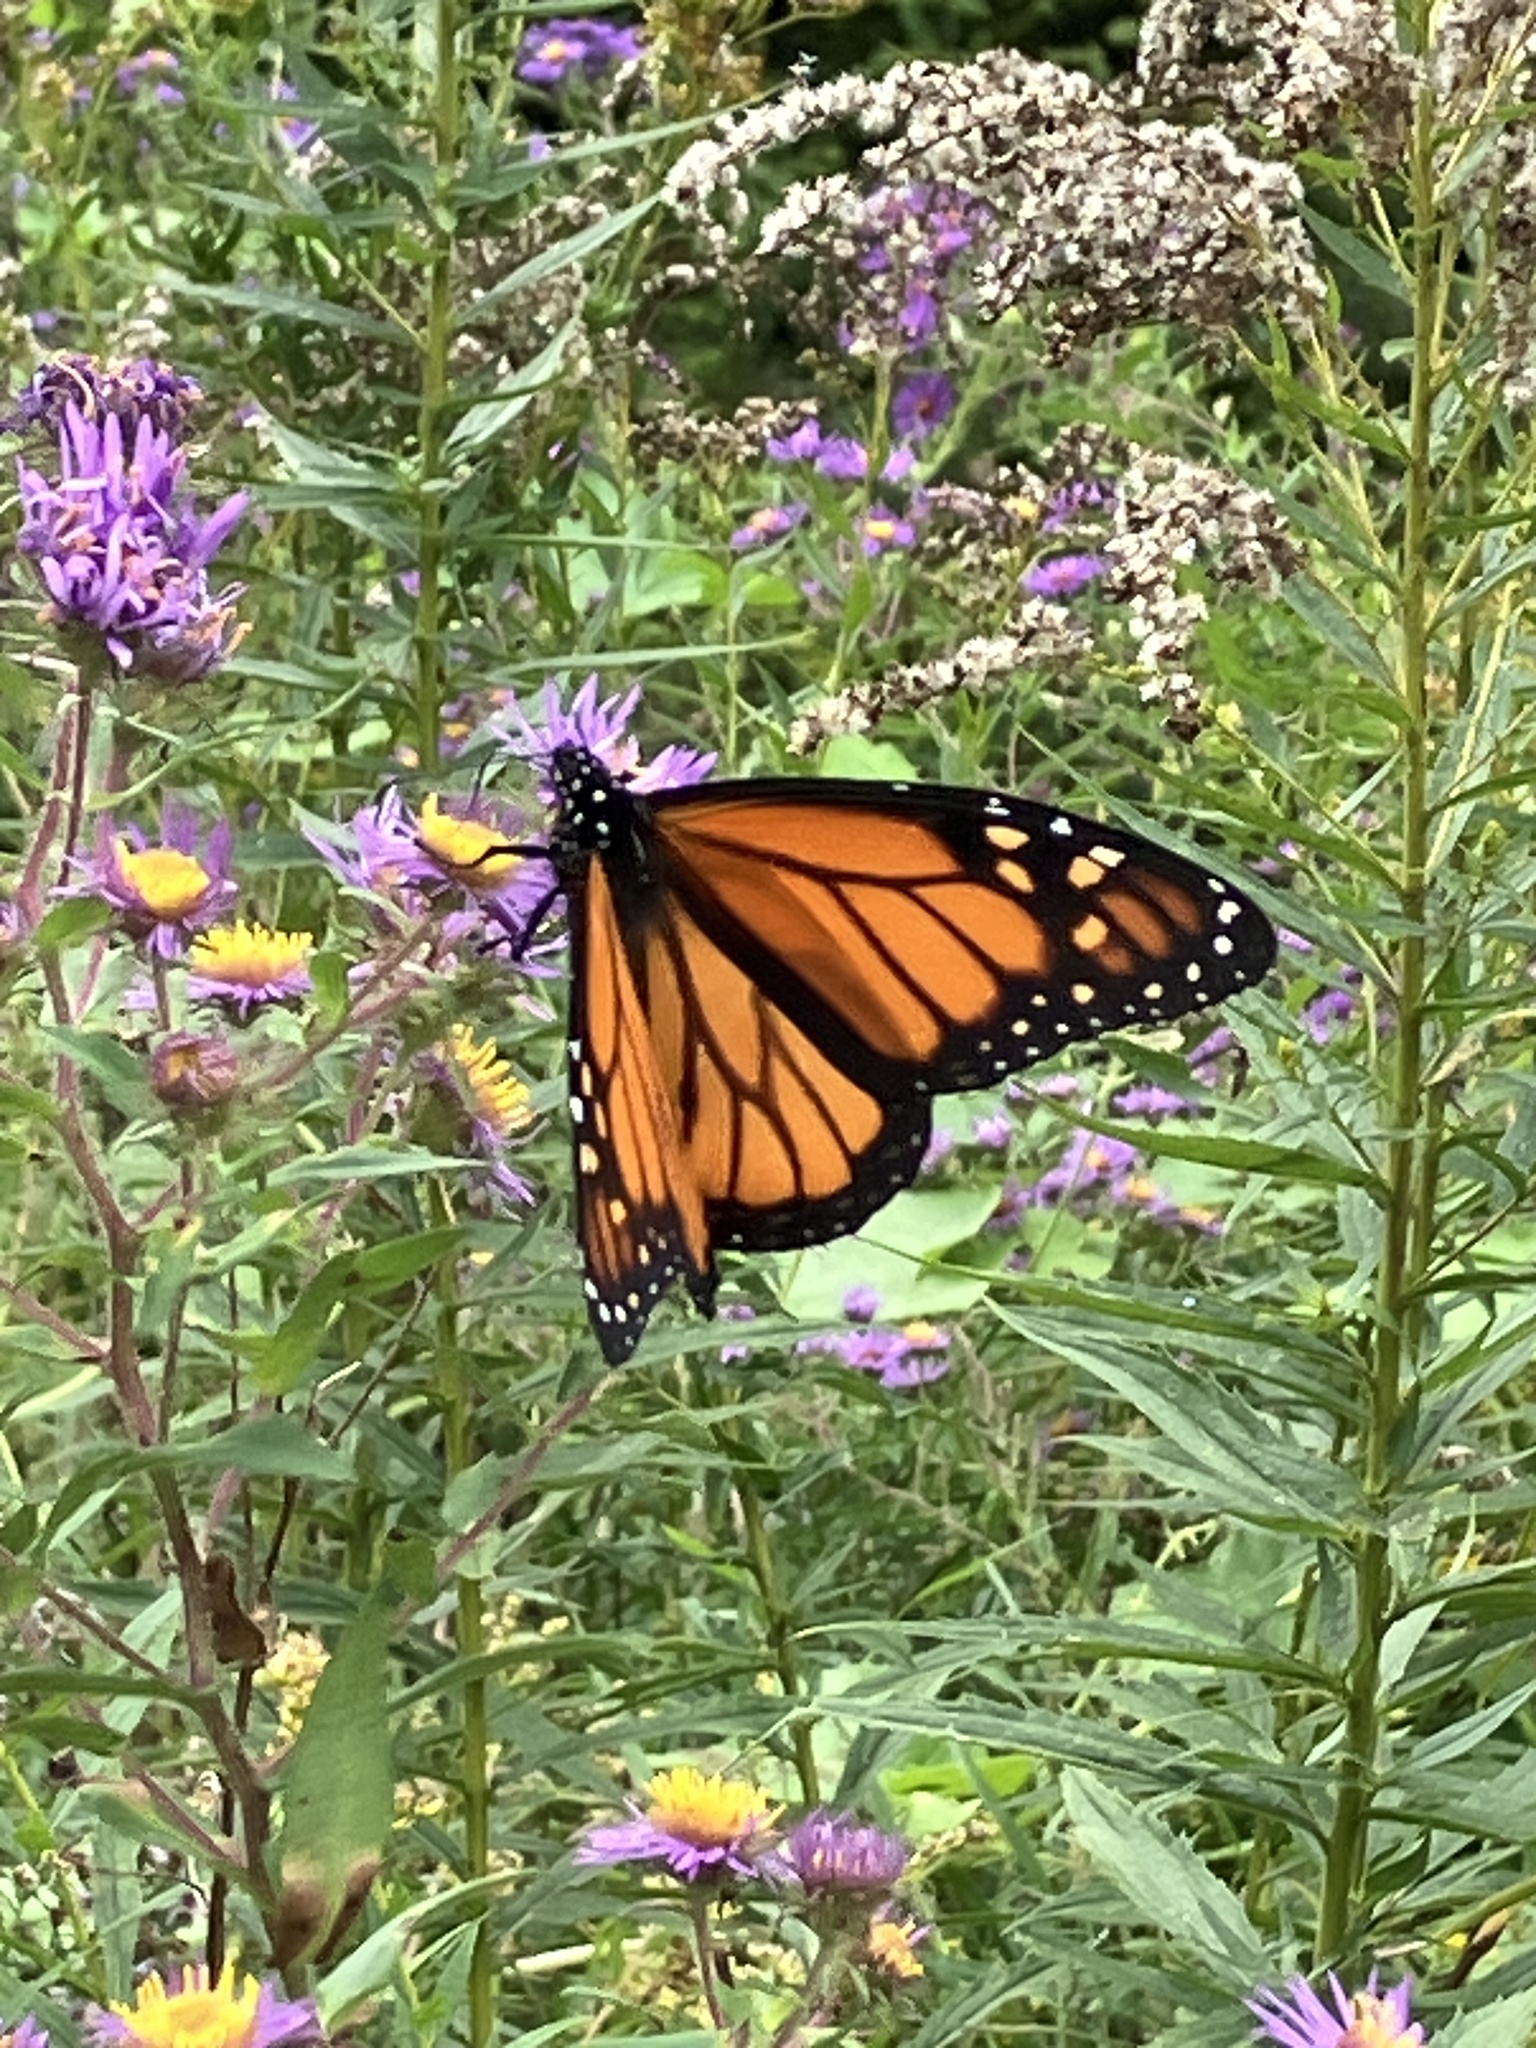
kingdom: Animalia
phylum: Arthropoda
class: Insecta
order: Lepidoptera
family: Nymphalidae
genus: Danaus
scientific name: Danaus plexippus
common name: Monarch
